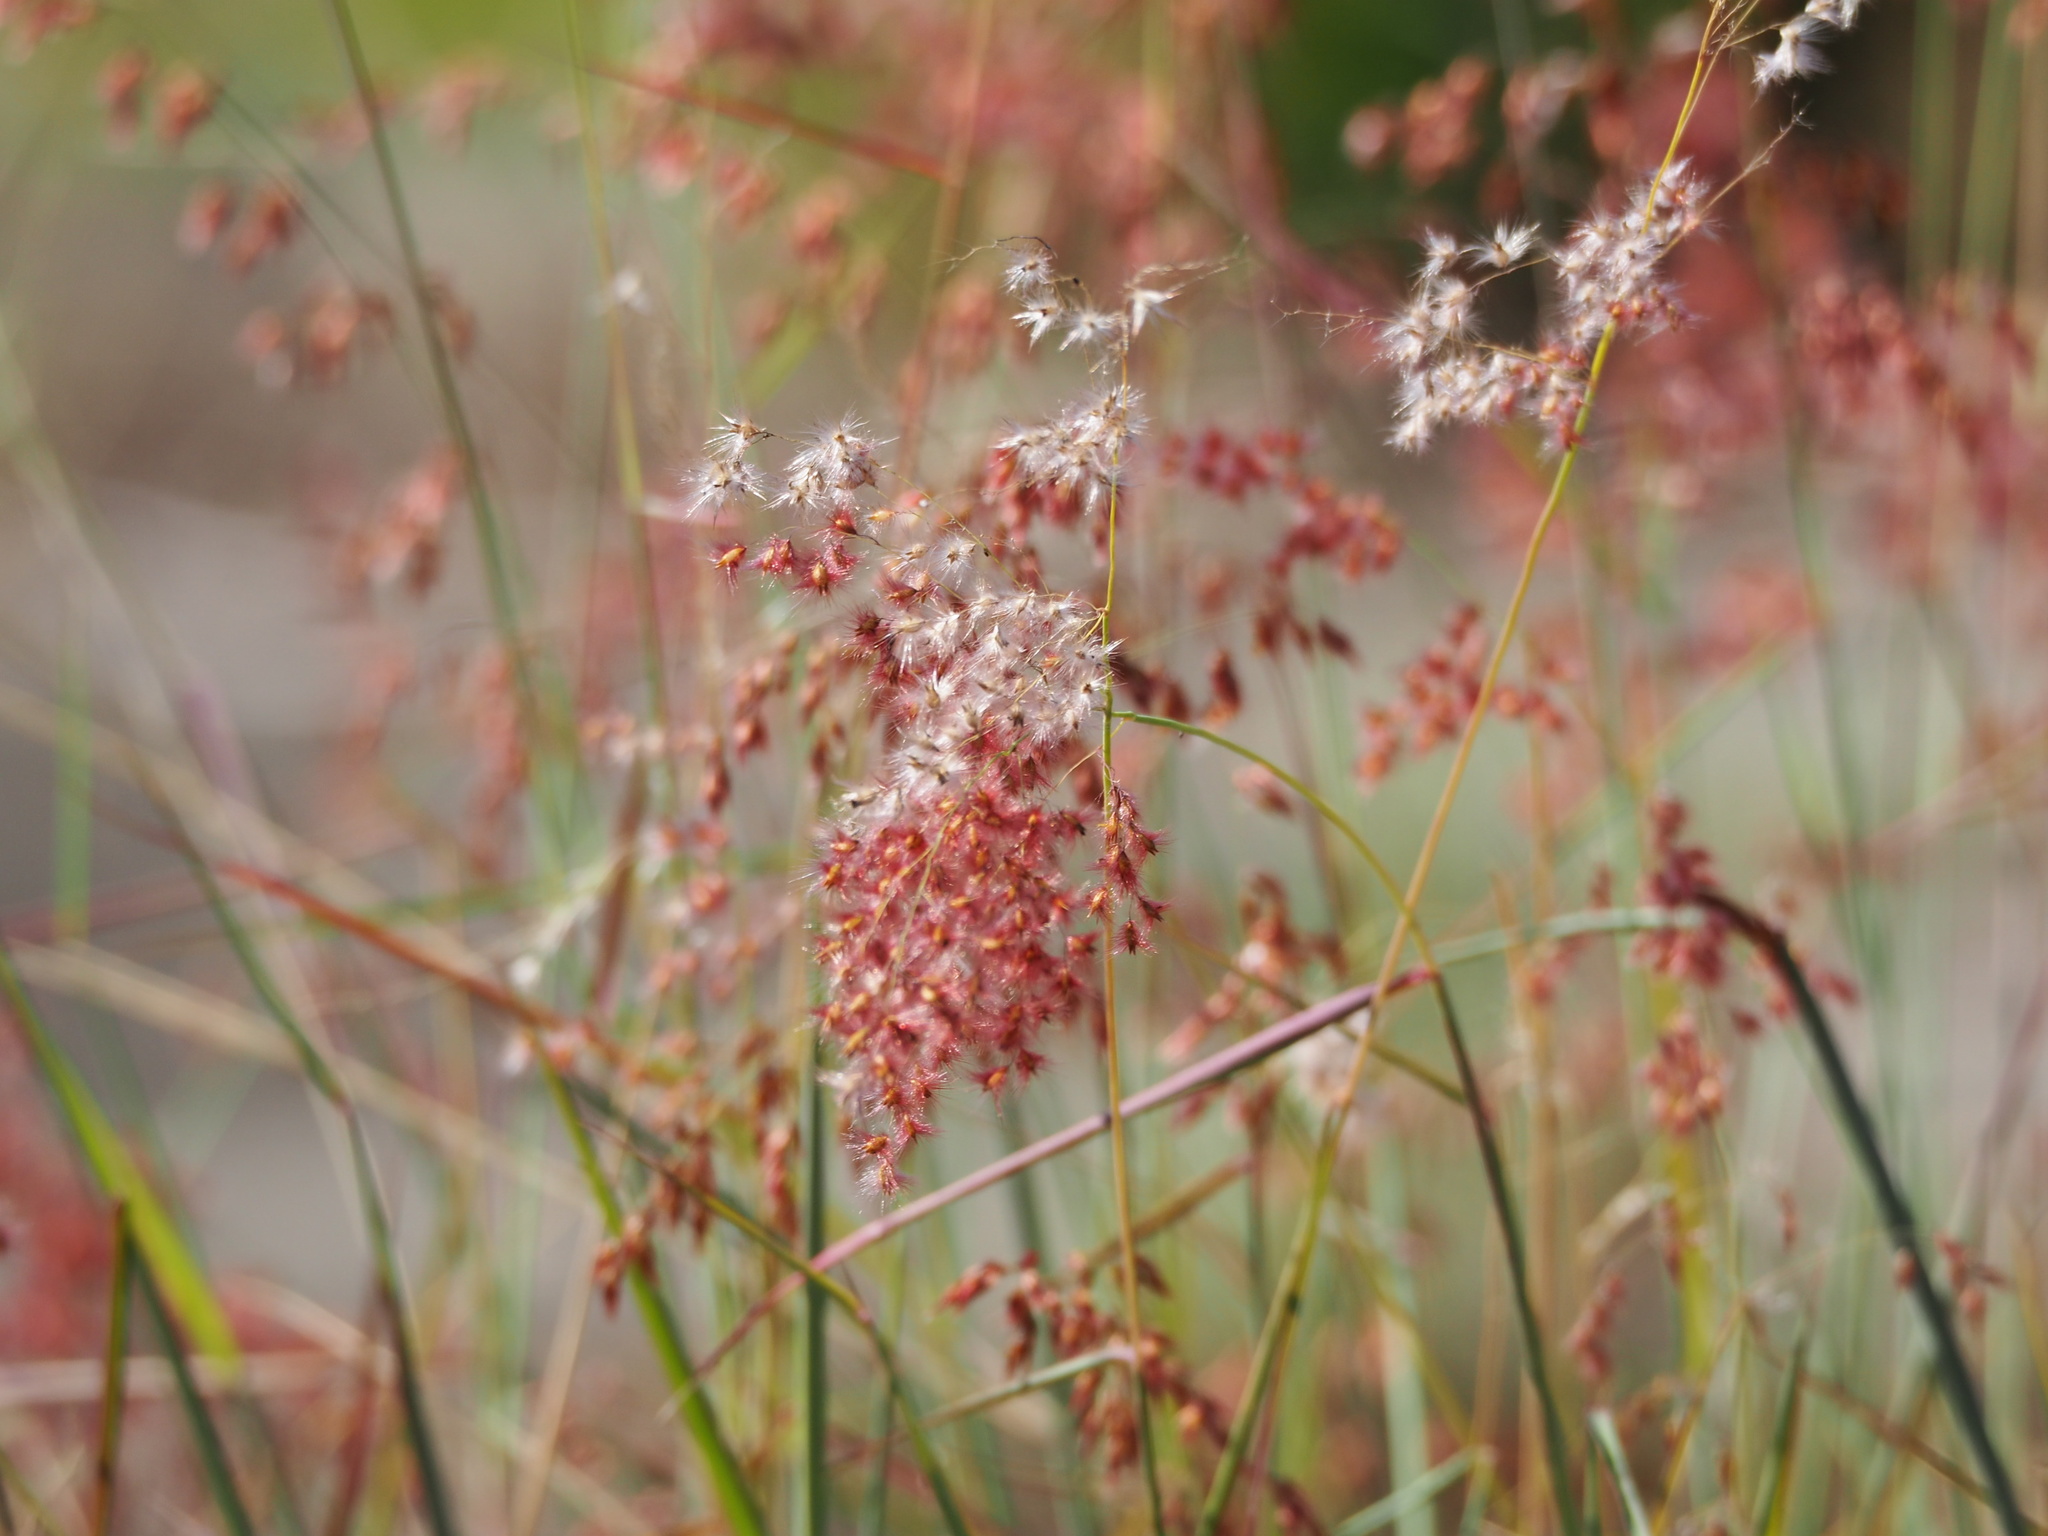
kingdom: Plantae
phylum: Tracheophyta
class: Liliopsida
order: Poales
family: Poaceae
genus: Melinis
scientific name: Melinis repens
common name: Rose natal grass
